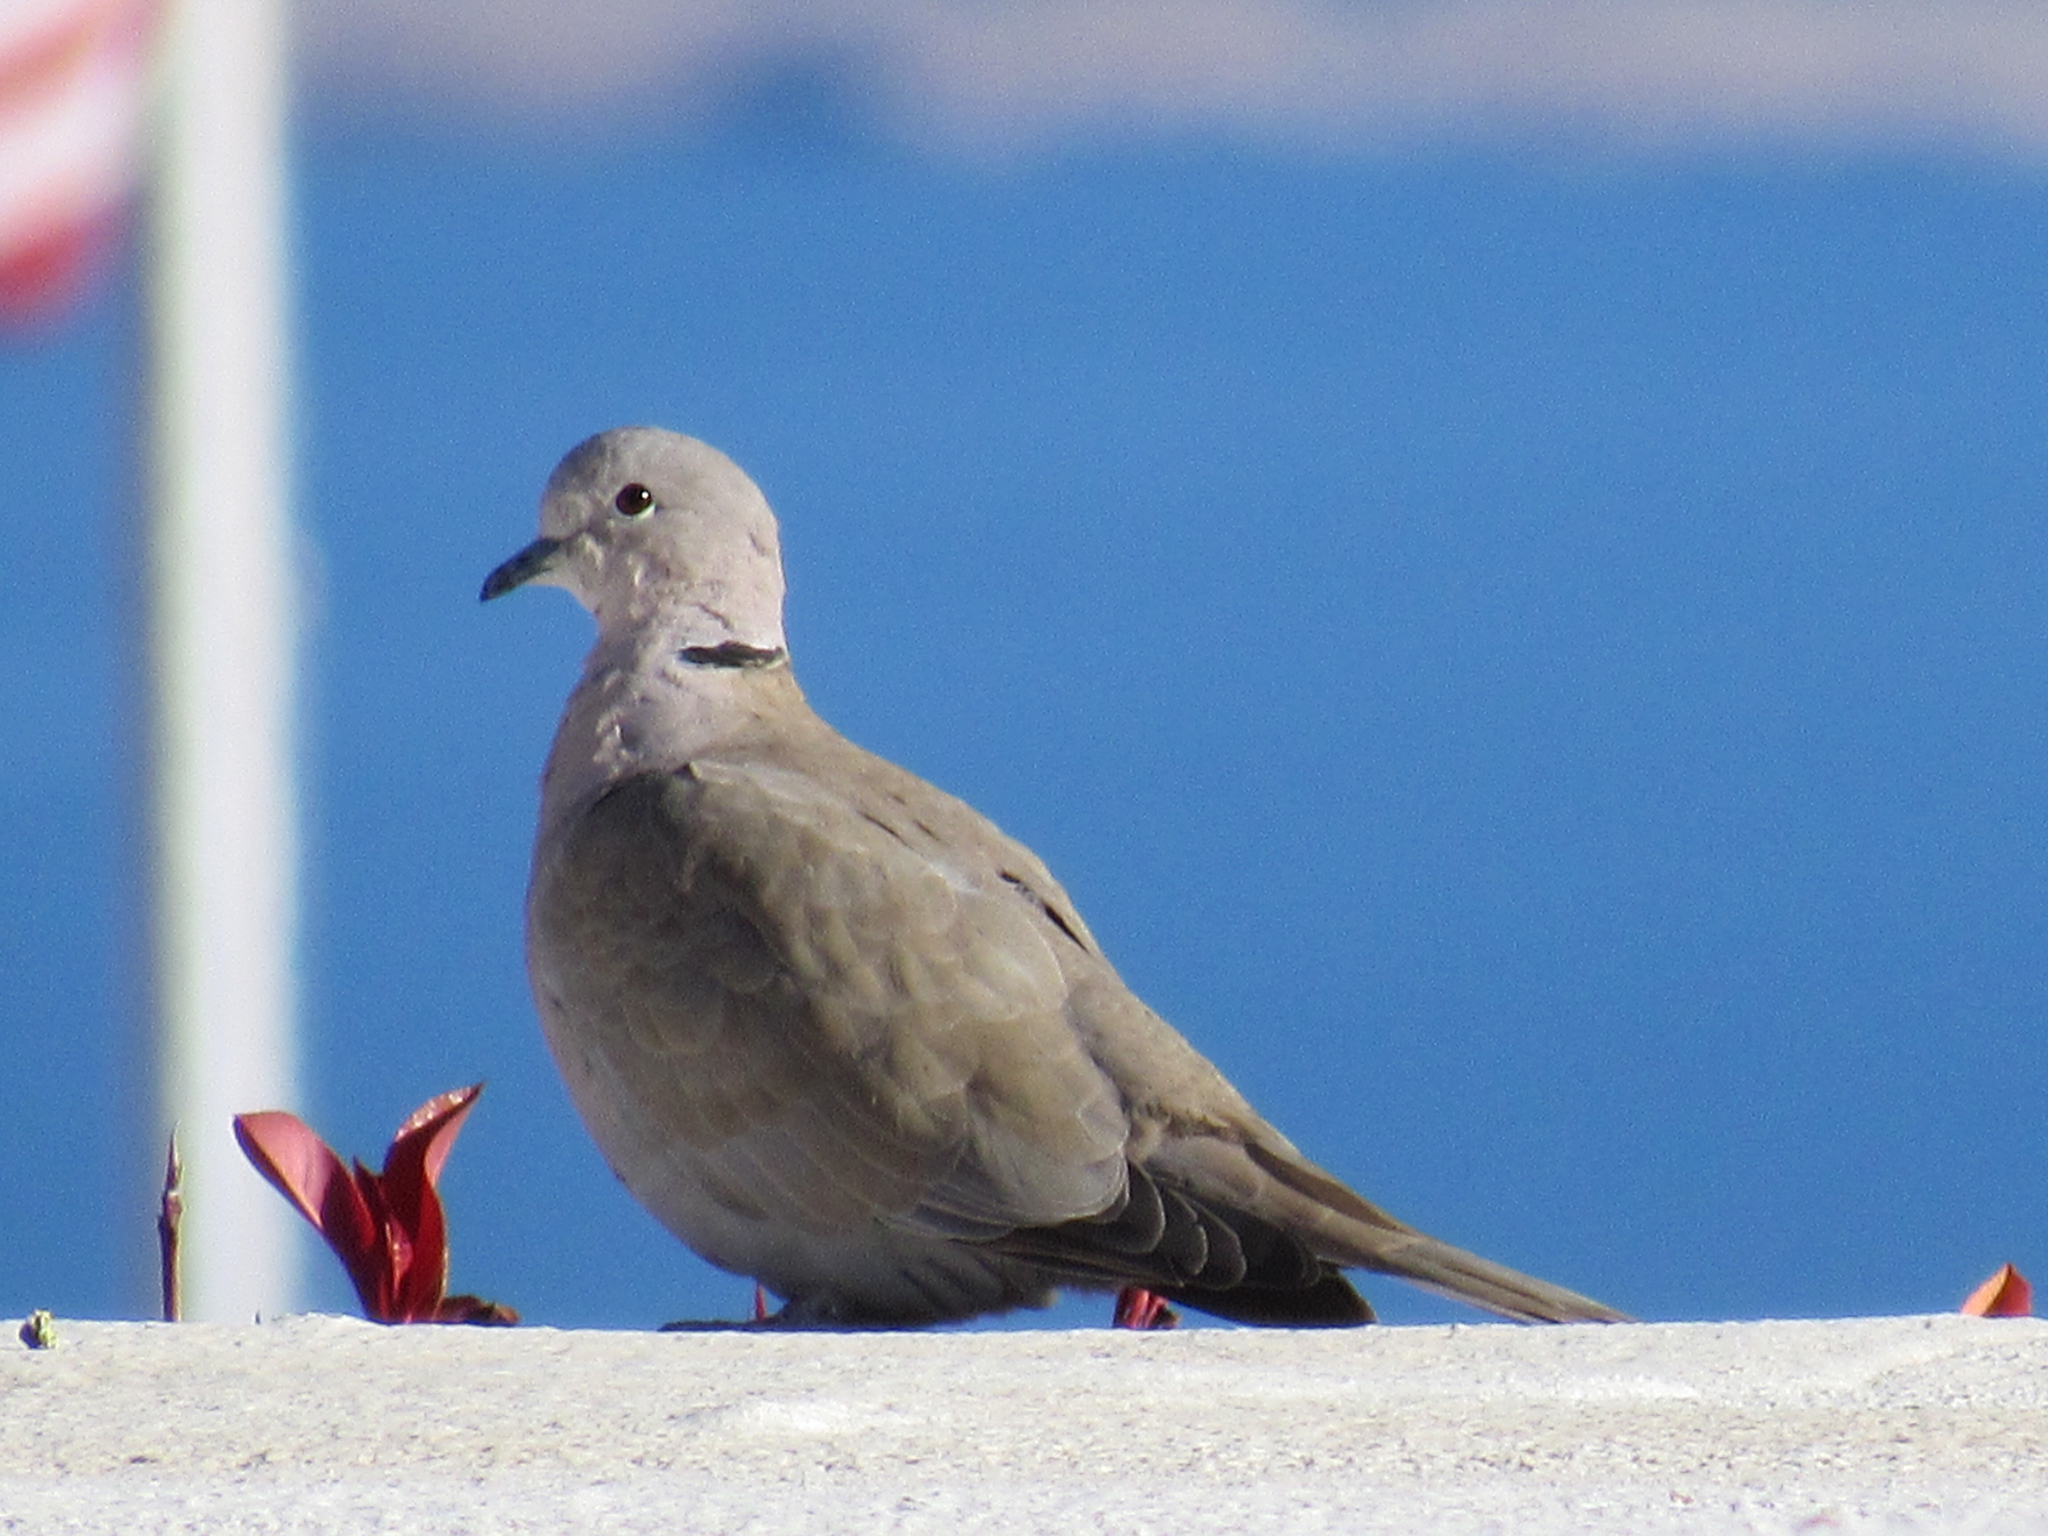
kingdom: Animalia
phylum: Chordata
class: Aves
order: Columbiformes
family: Columbidae
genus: Streptopelia
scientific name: Streptopelia decaocto
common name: Eurasian collared dove
